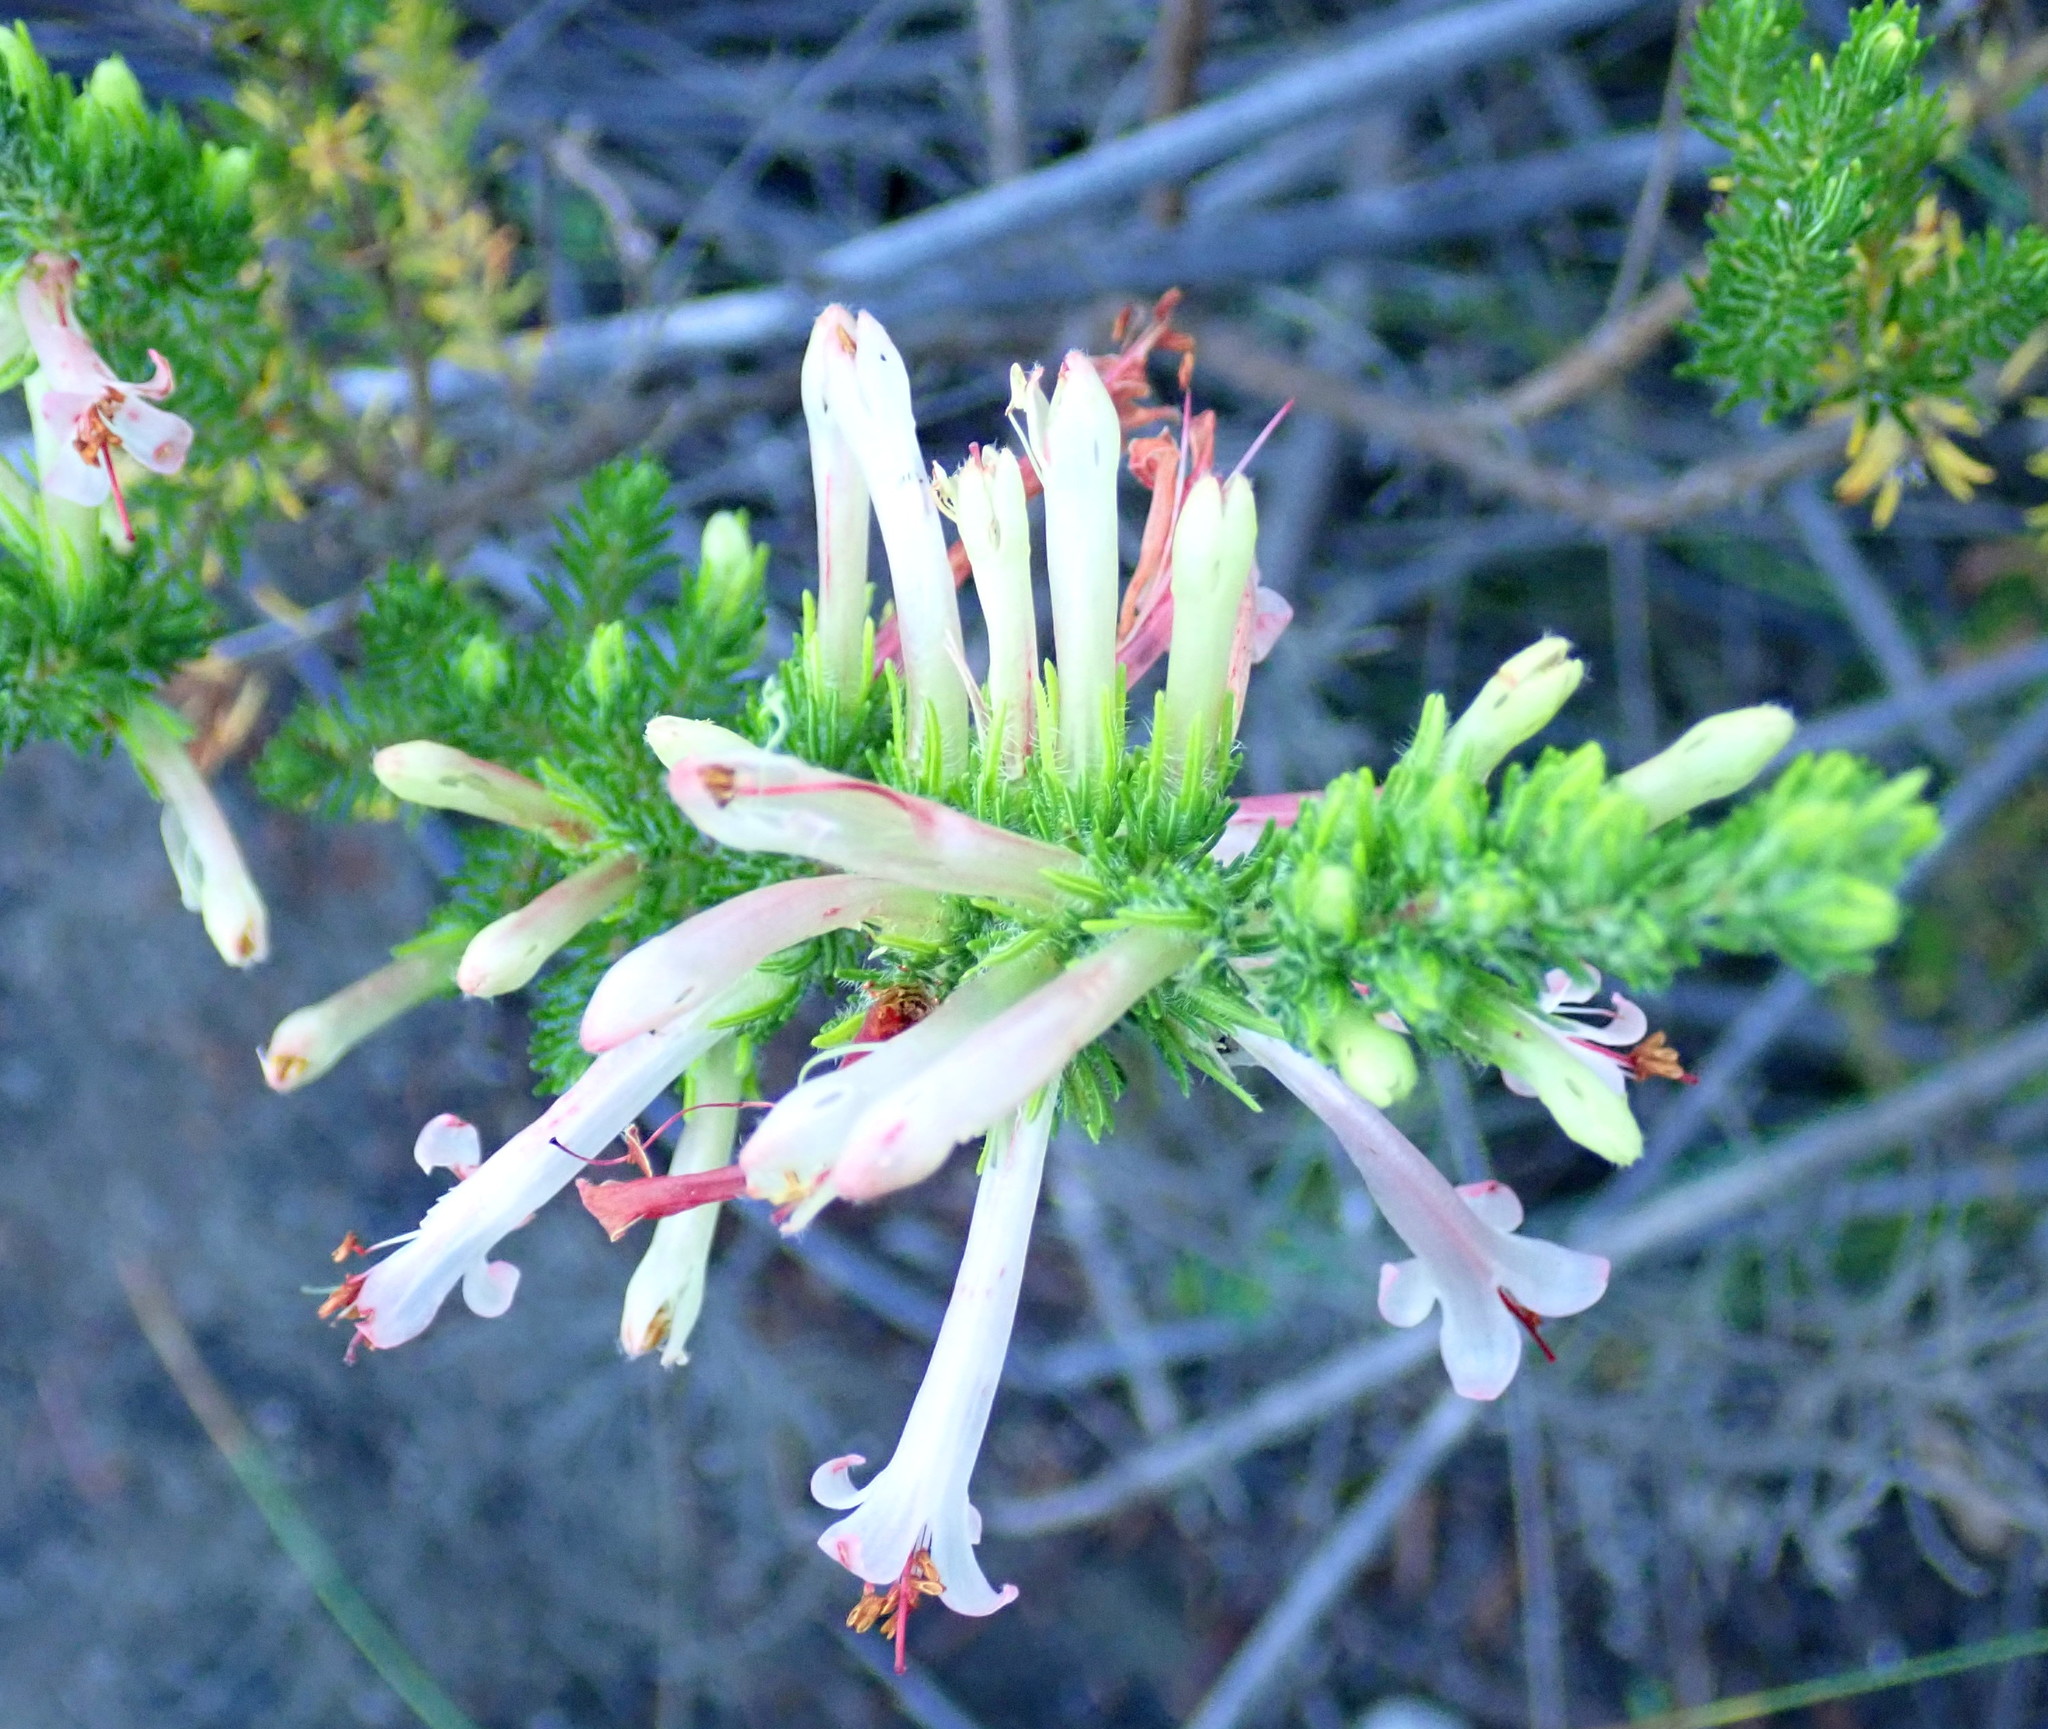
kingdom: Plantae
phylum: Tracheophyta
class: Magnoliopsida
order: Ericales
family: Ericaceae
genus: Erica
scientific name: Erica curviflora
